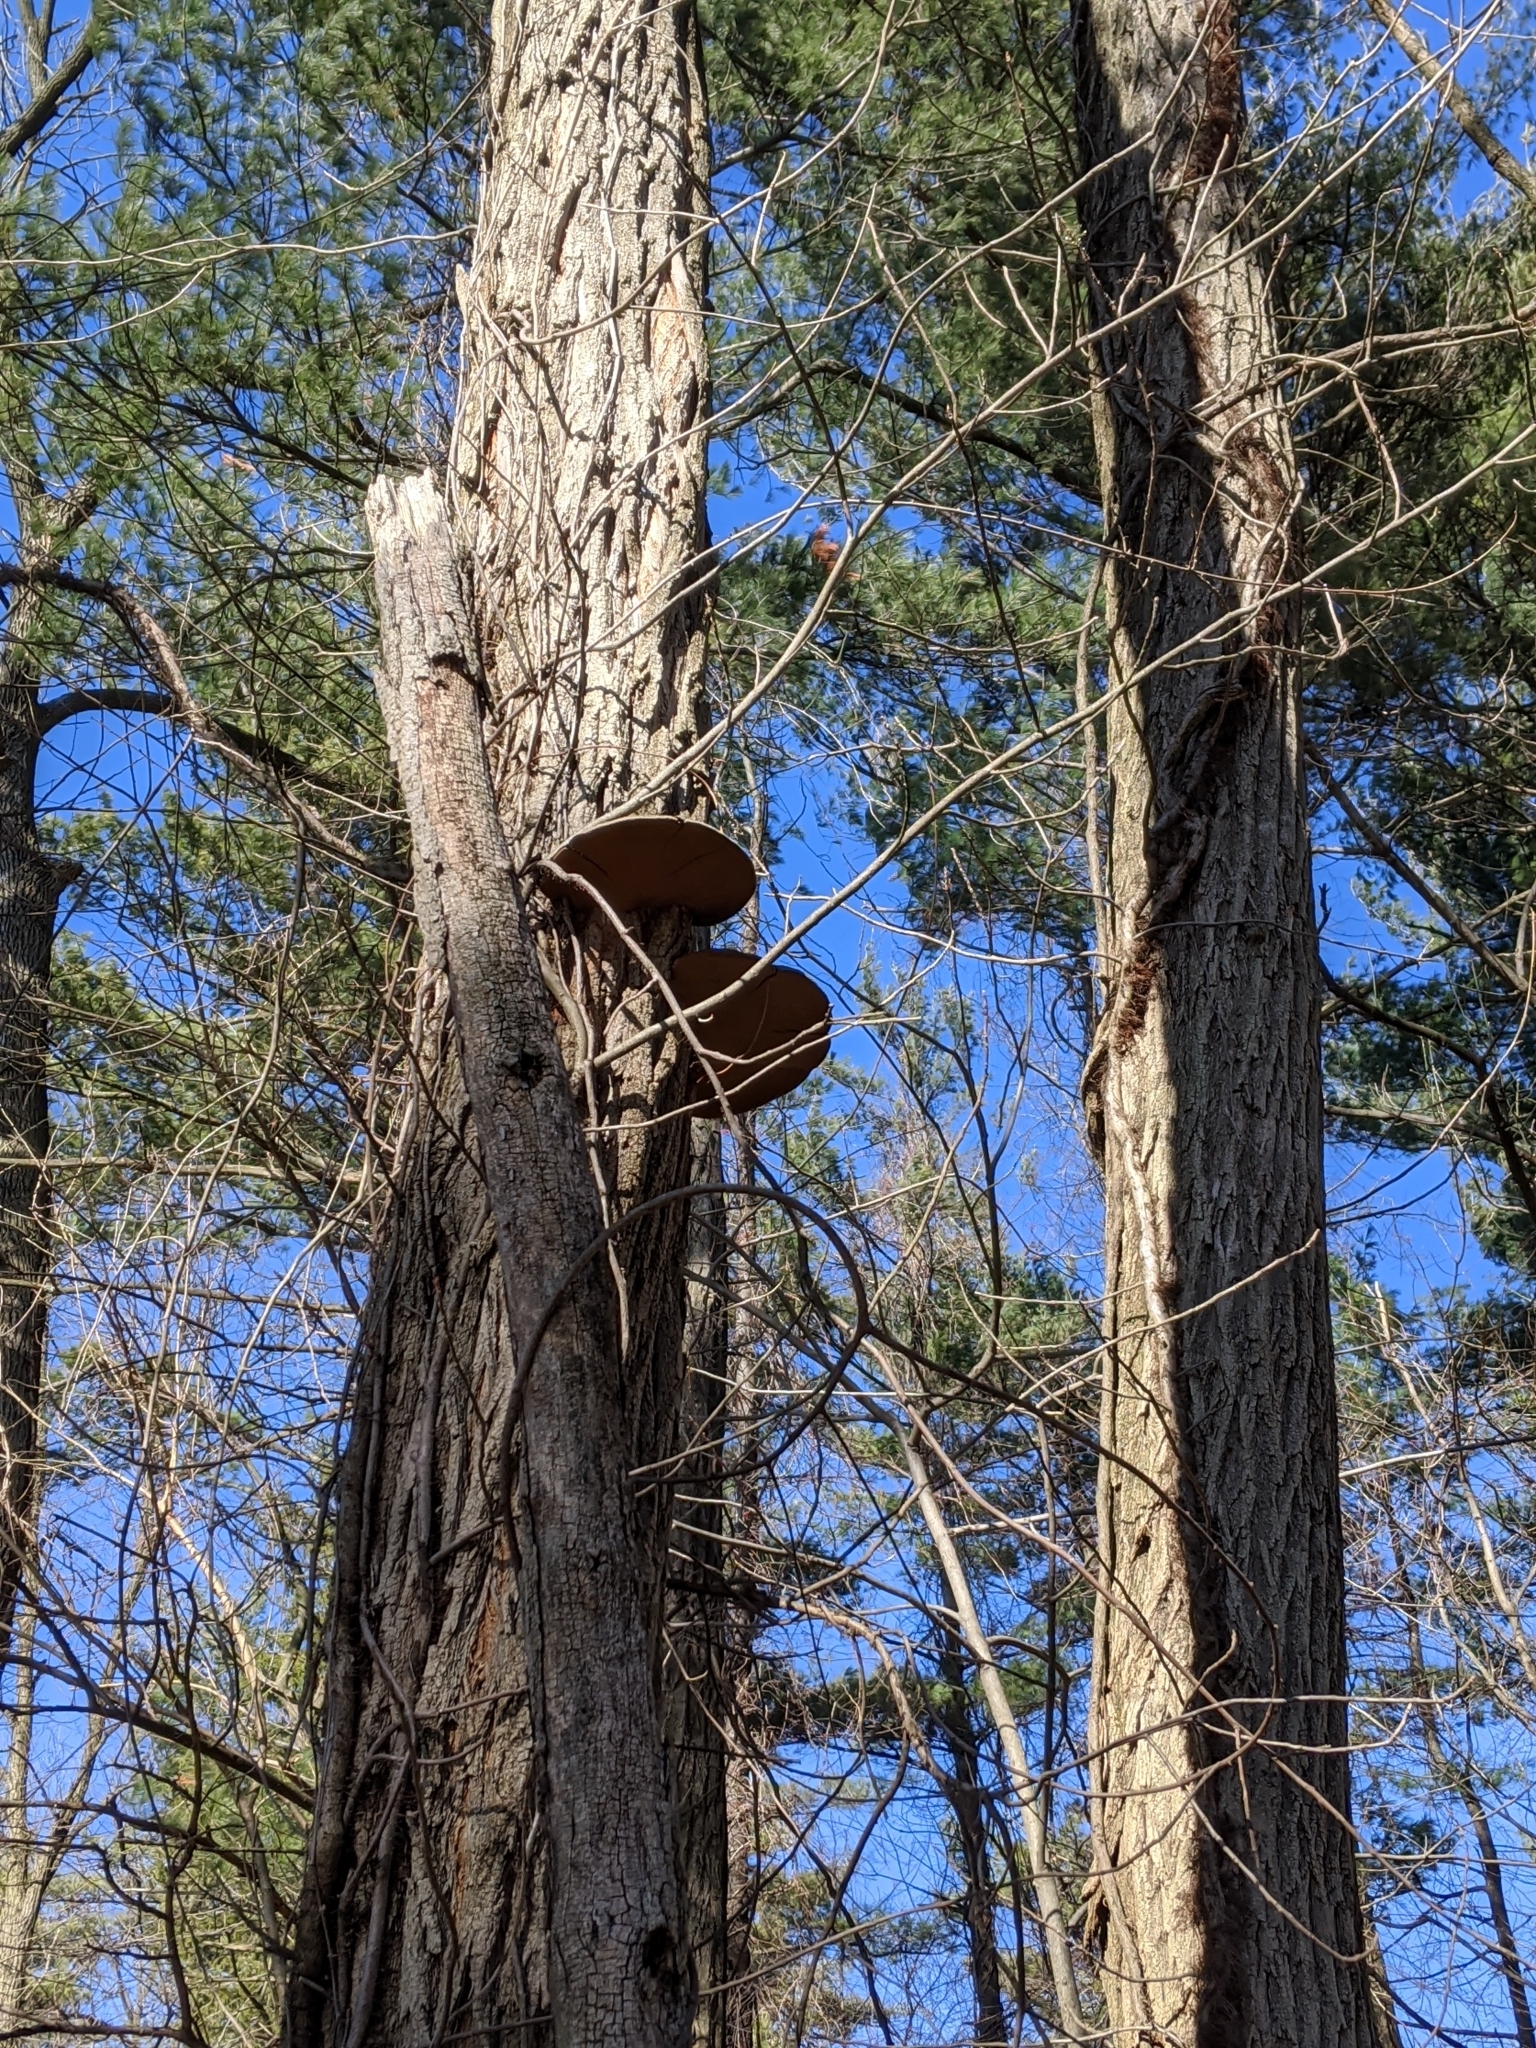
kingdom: Fungi
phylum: Basidiomycota
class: Agaricomycetes
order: Hymenochaetales
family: Hymenochaetaceae
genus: Phellinus
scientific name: Phellinus robiniae
